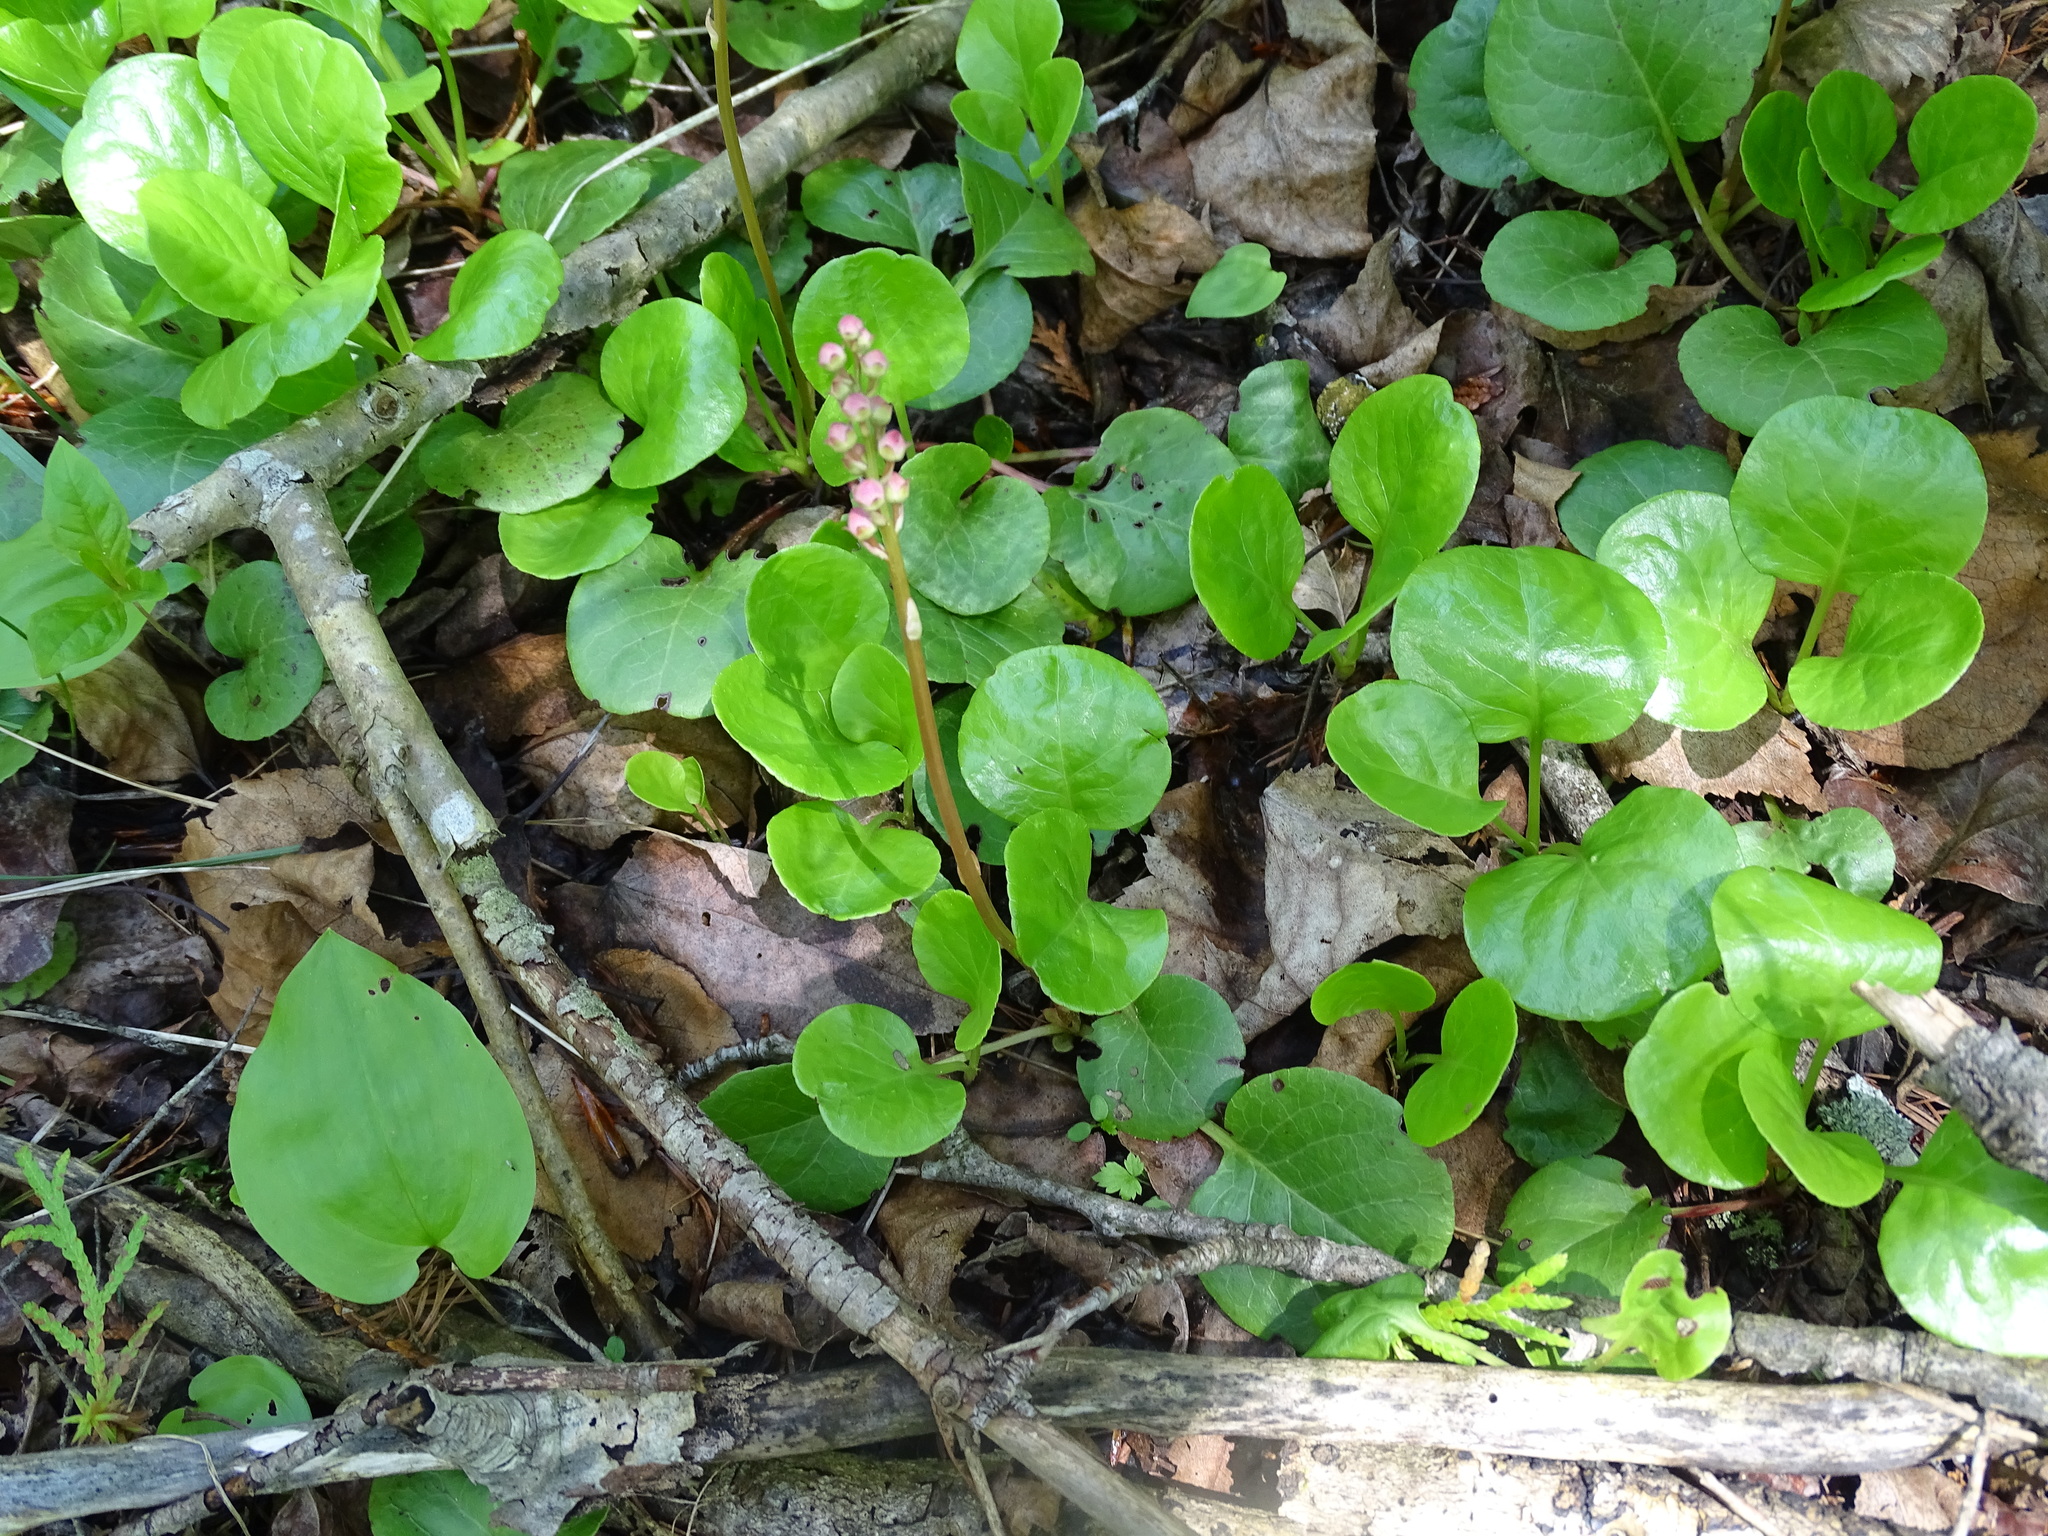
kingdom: Plantae
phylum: Tracheophyta
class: Magnoliopsida
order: Ericales
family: Ericaceae
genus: Pyrola
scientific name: Pyrola asarifolia
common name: Bog wintergreen
